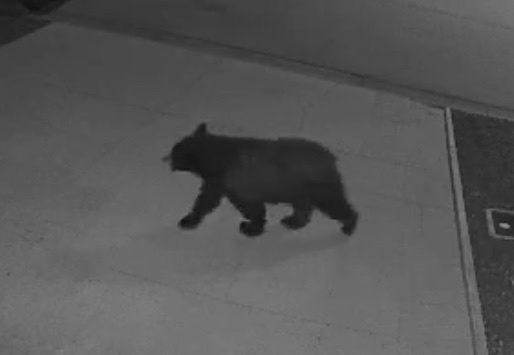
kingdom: Animalia
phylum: Chordata
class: Mammalia
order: Carnivora
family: Ursidae
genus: Ursus
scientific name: Ursus americanus
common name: American black bear
